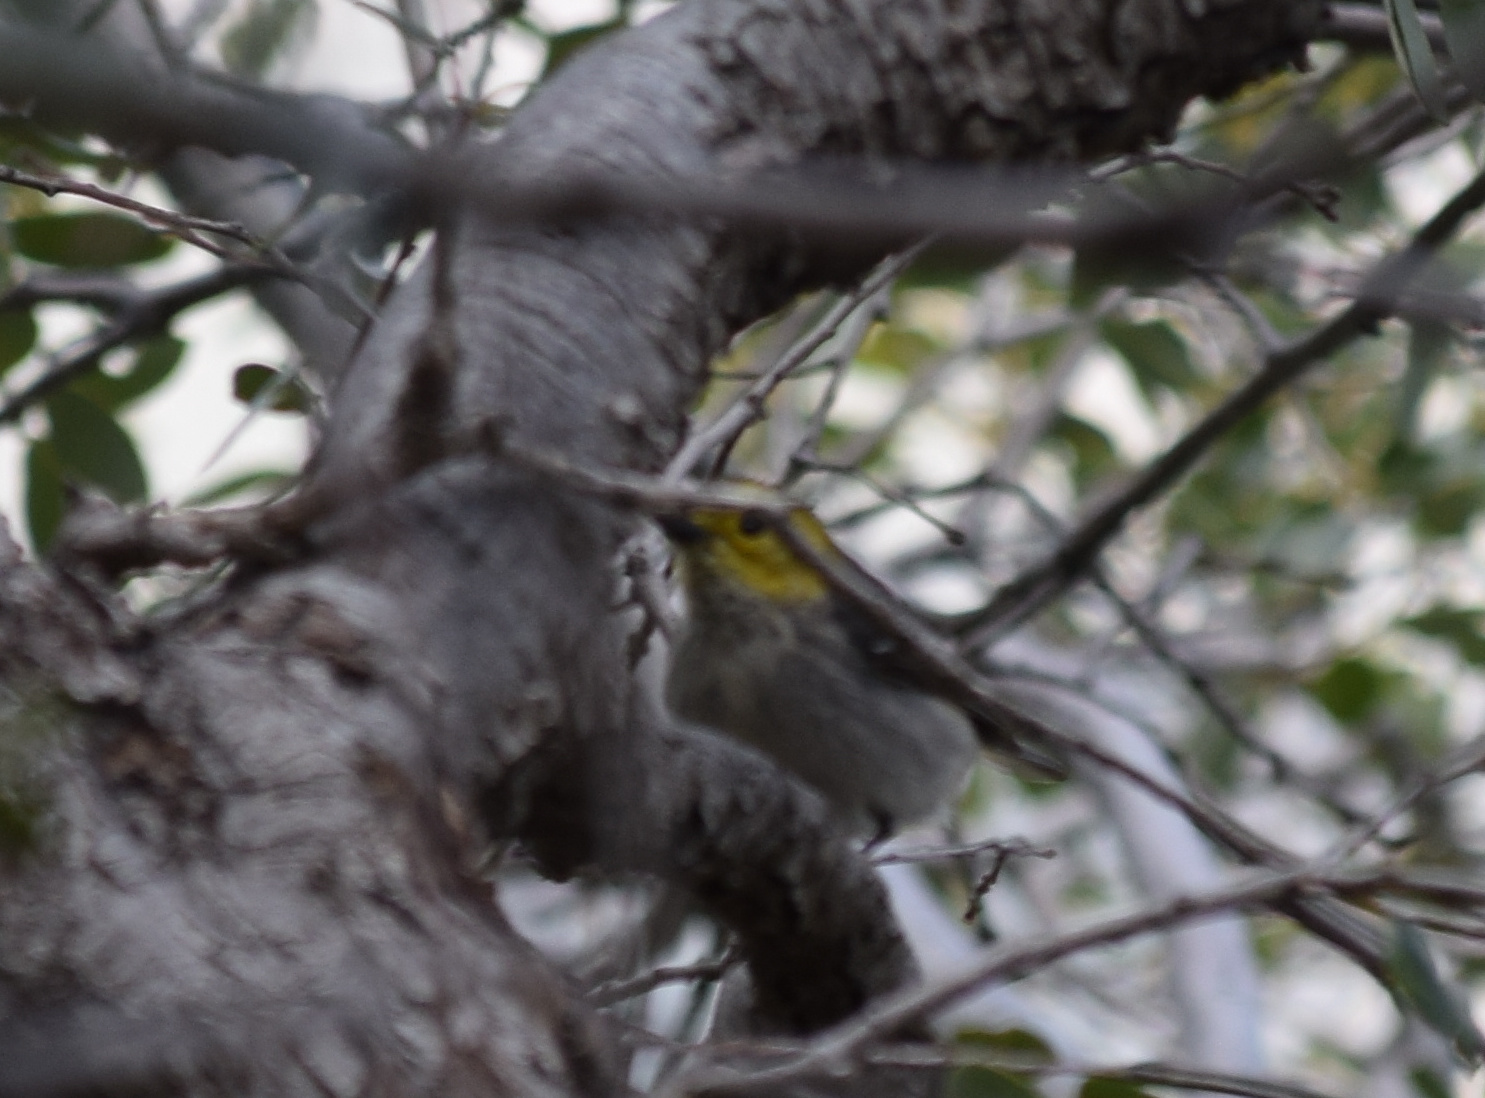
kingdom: Animalia
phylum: Chordata
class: Aves
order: Passeriformes
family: Parulidae
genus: Setophaga
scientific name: Setophaga occidentalis
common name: Hermit warbler
